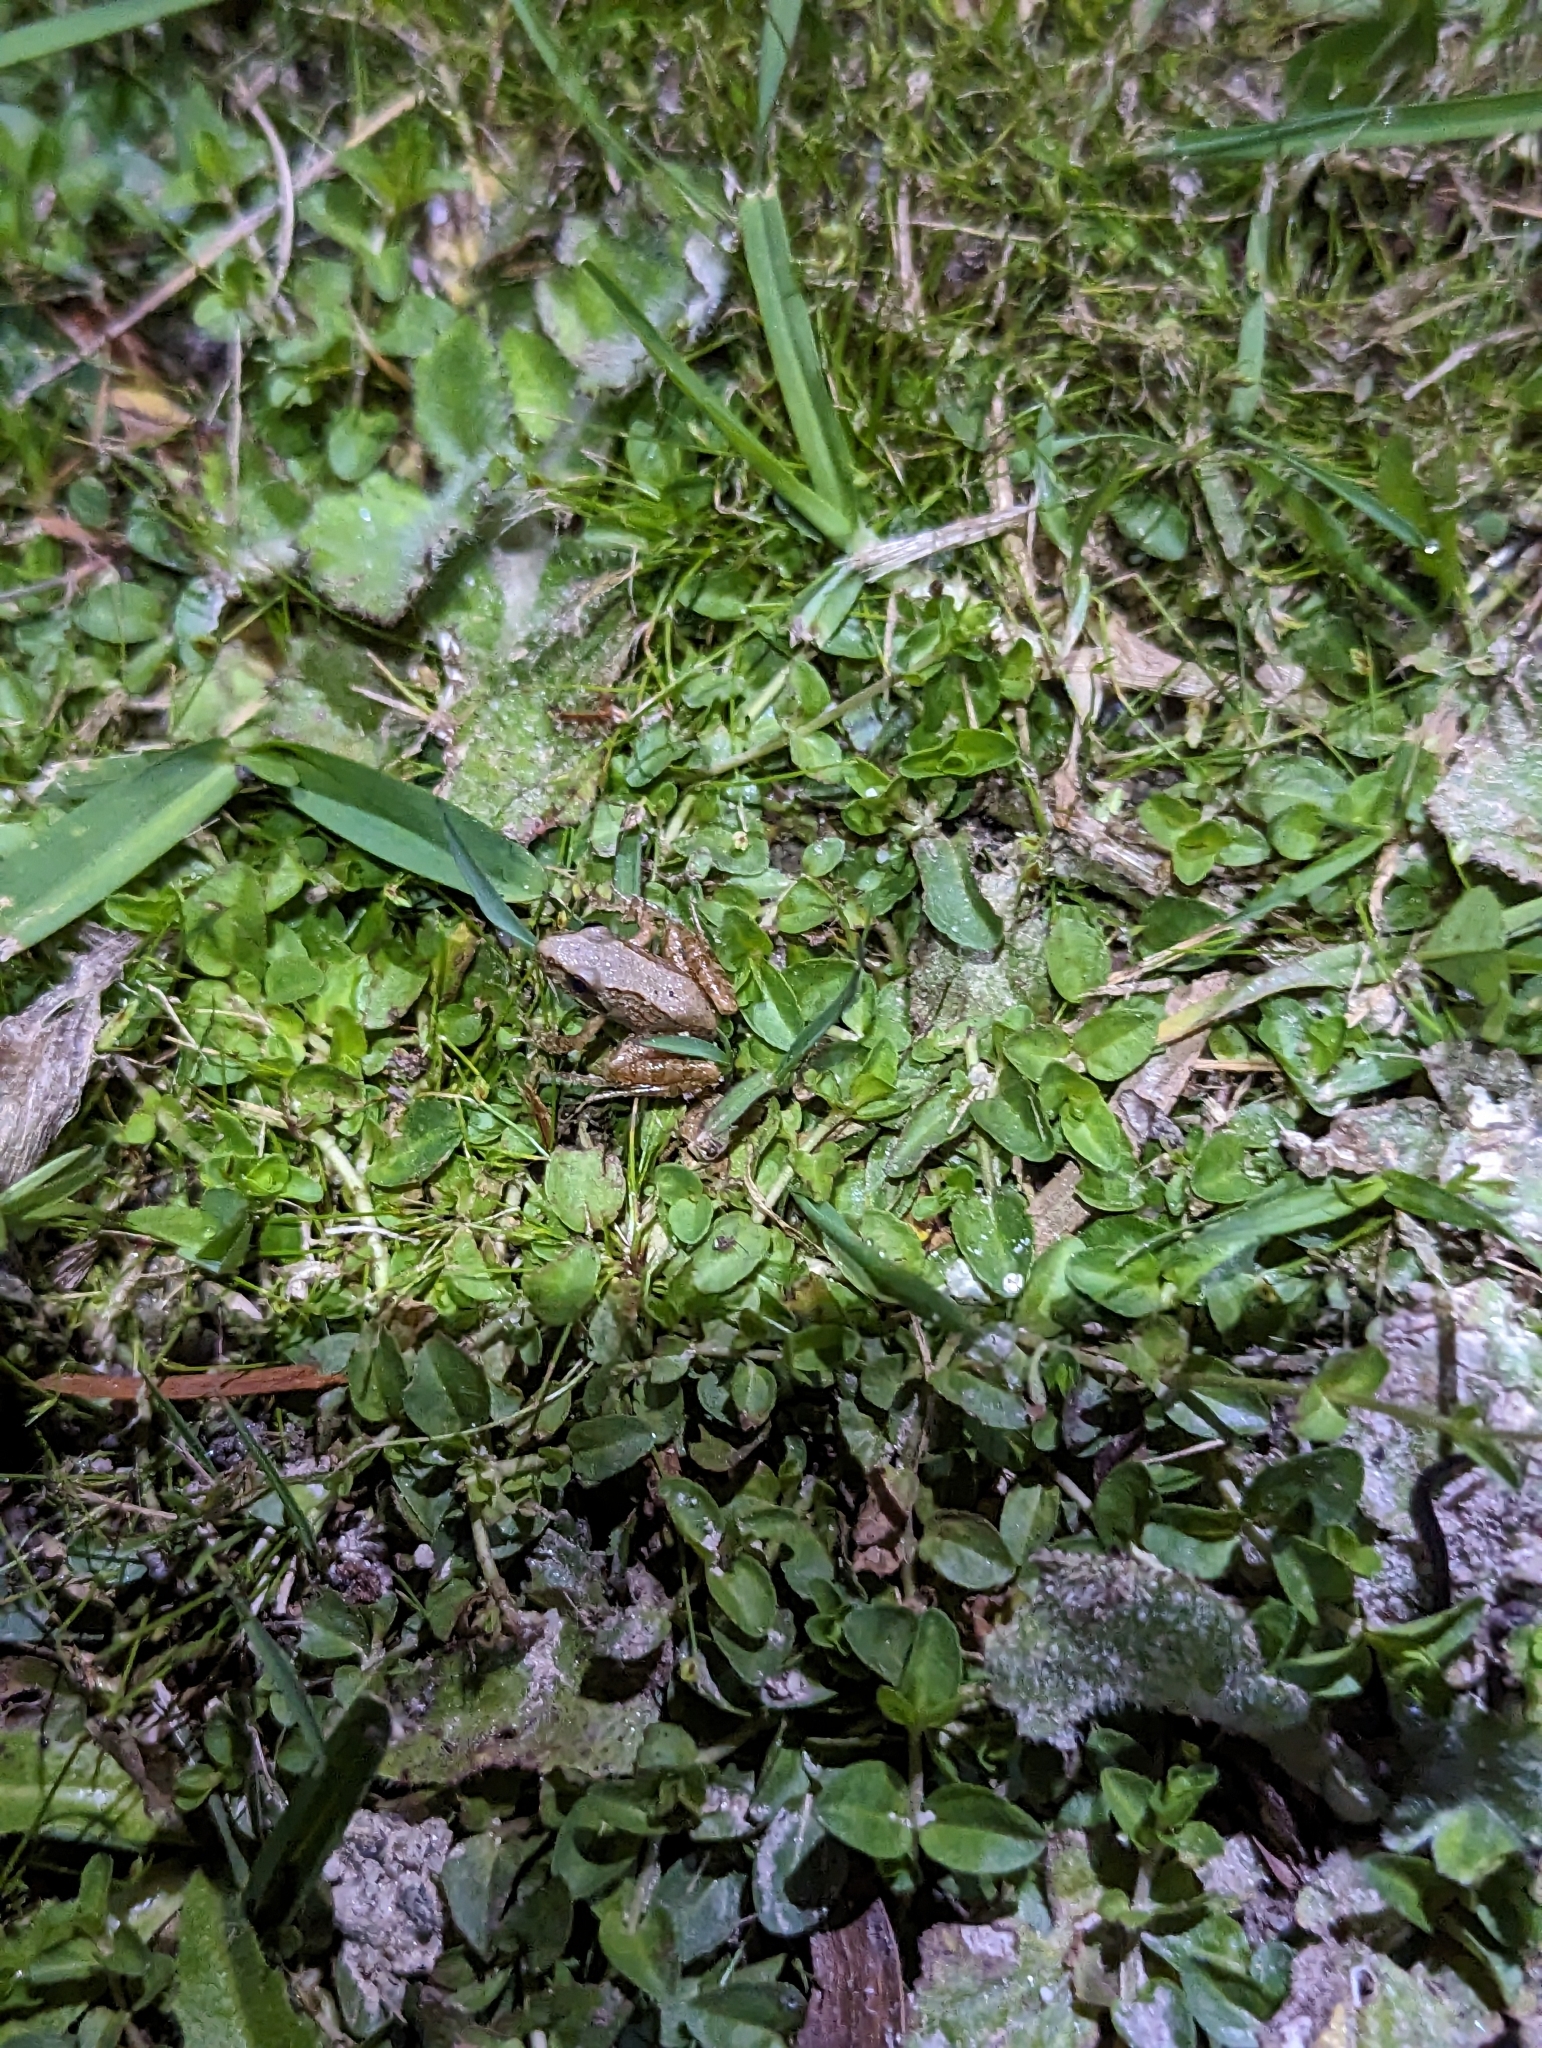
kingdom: Animalia
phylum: Chordata
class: Amphibia
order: Anura
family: Pyxicephalidae
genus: Strongylopus
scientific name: Strongylopus grayii
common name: Gray's stream frog
